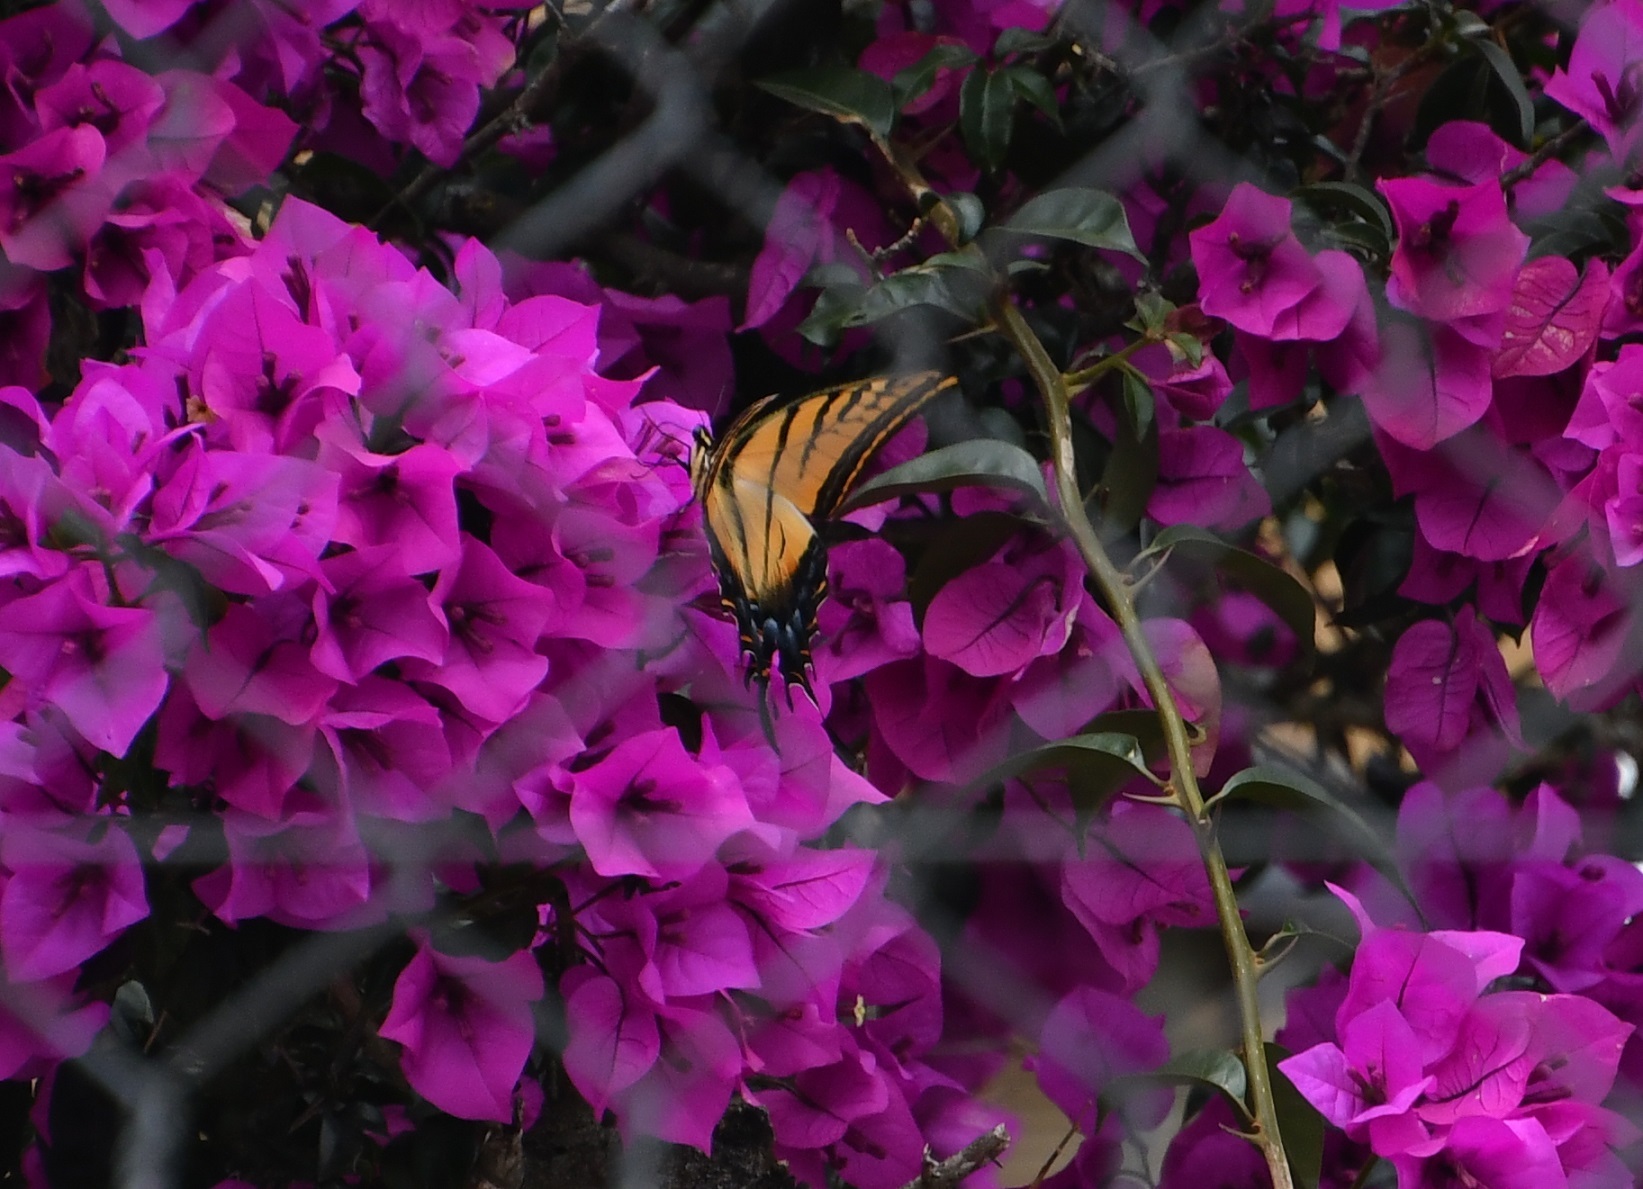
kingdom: Animalia
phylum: Arthropoda
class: Insecta
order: Lepidoptera
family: Papilionidae
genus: Papilio
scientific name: Papilio multicaudata
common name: Two-tailed tiger swallowtail
